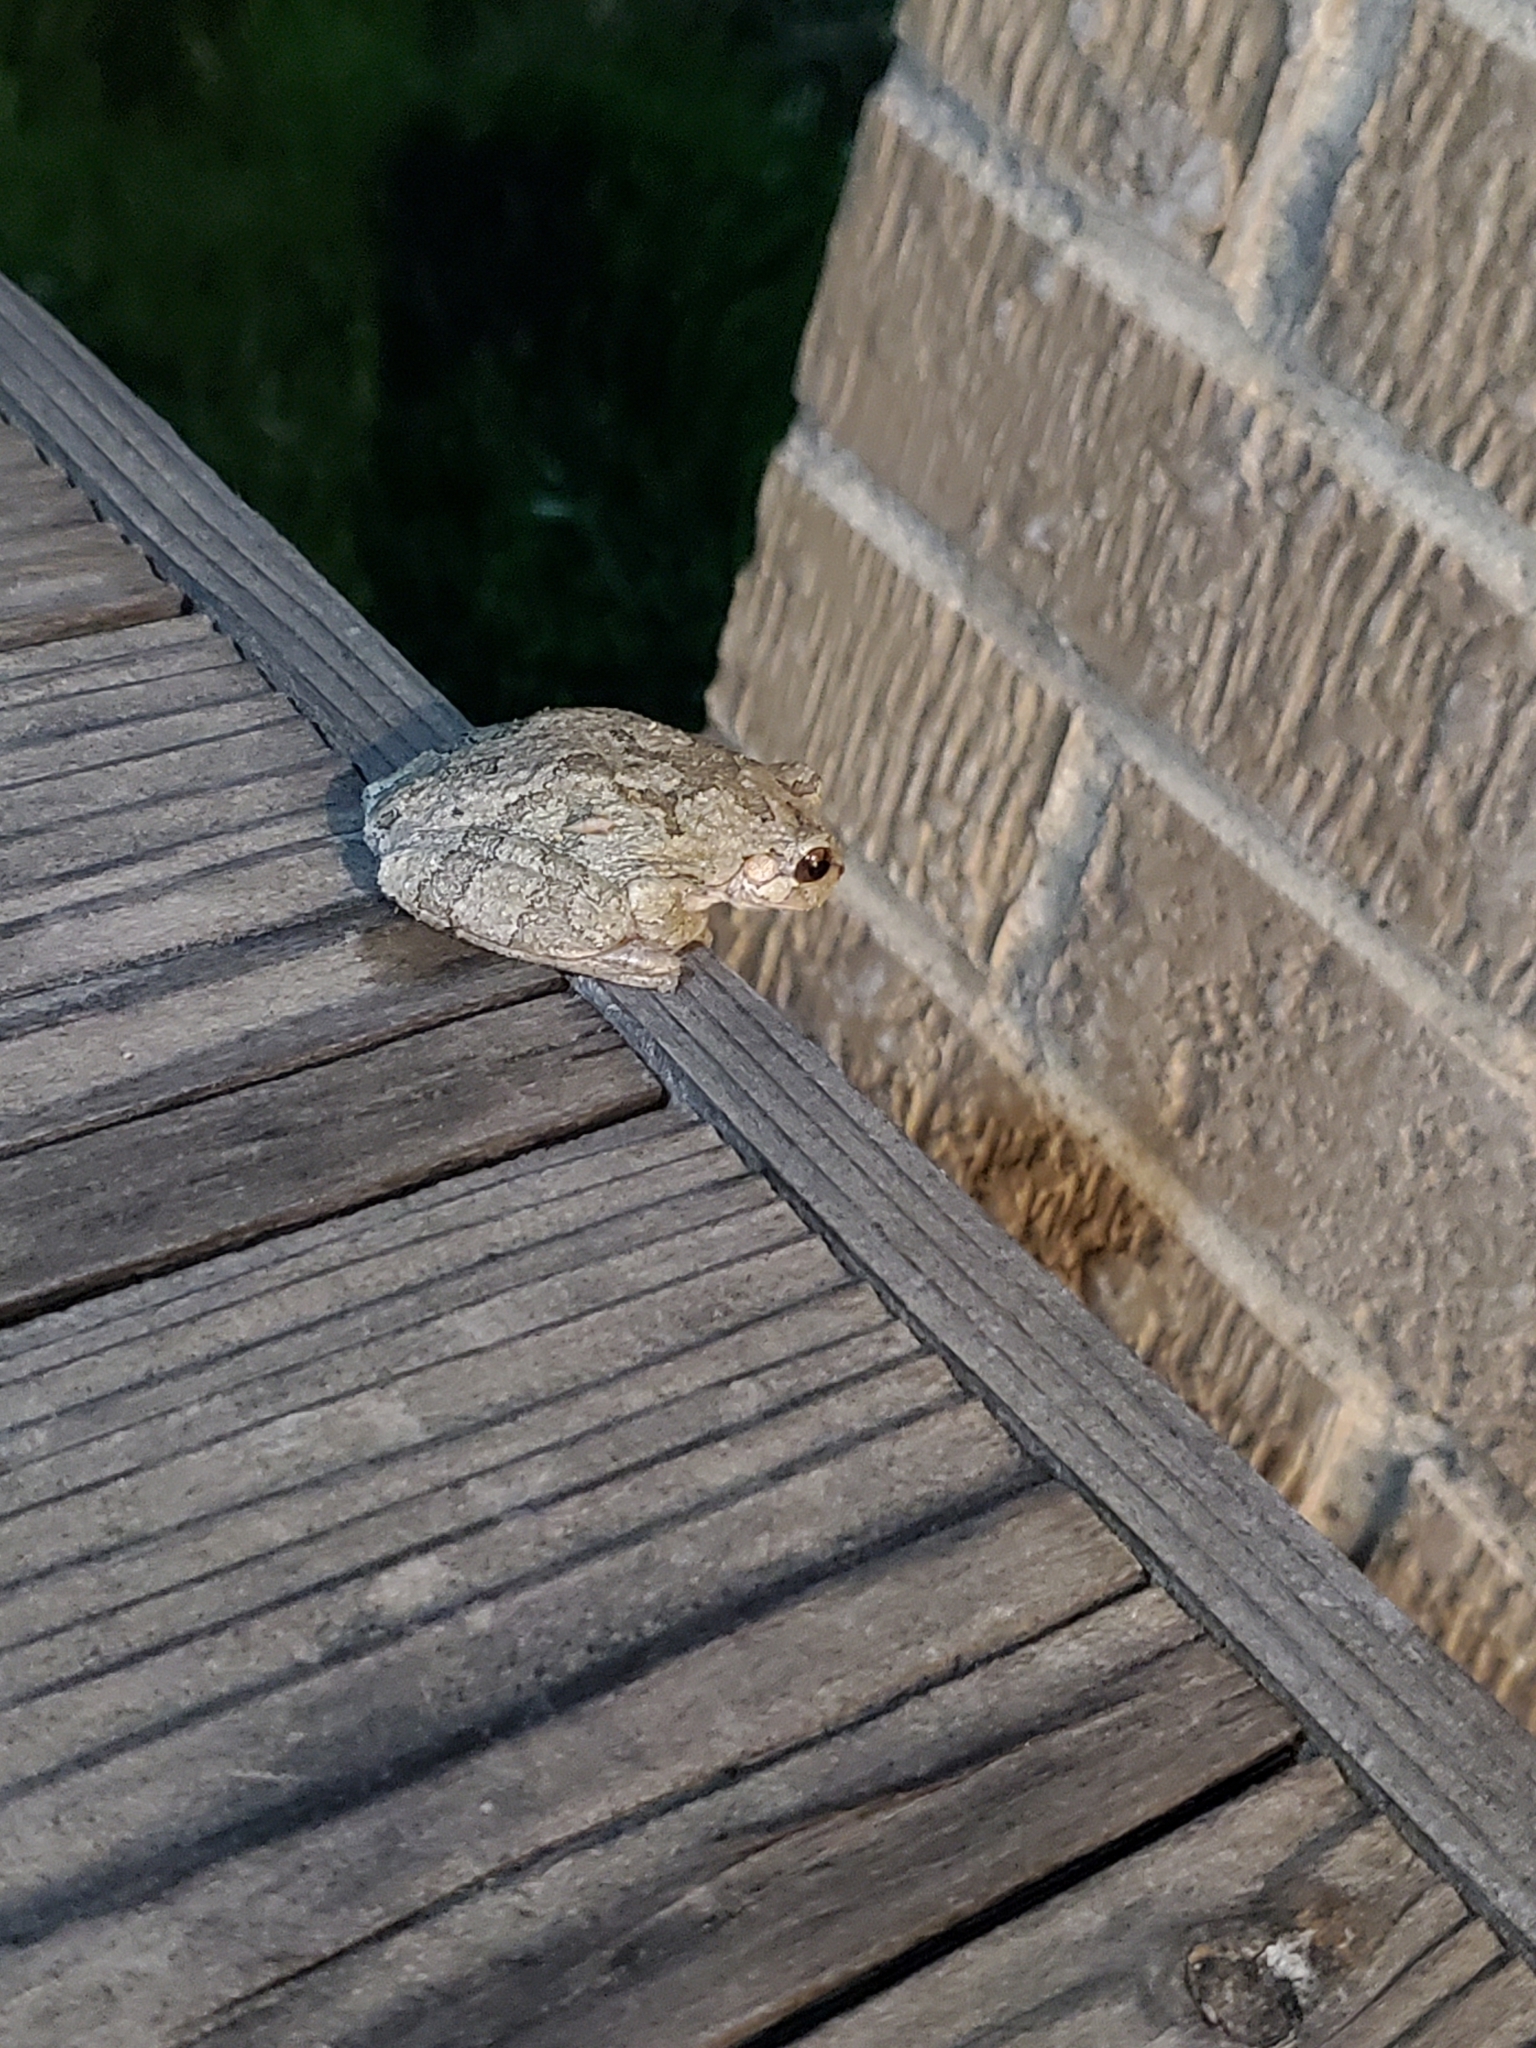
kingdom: Animalia
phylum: Chordata
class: Amphibia
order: Anura
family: Hylidae
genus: Dryophytes
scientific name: Dryophytes chrysoscelis
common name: Cope's gray treefrog
